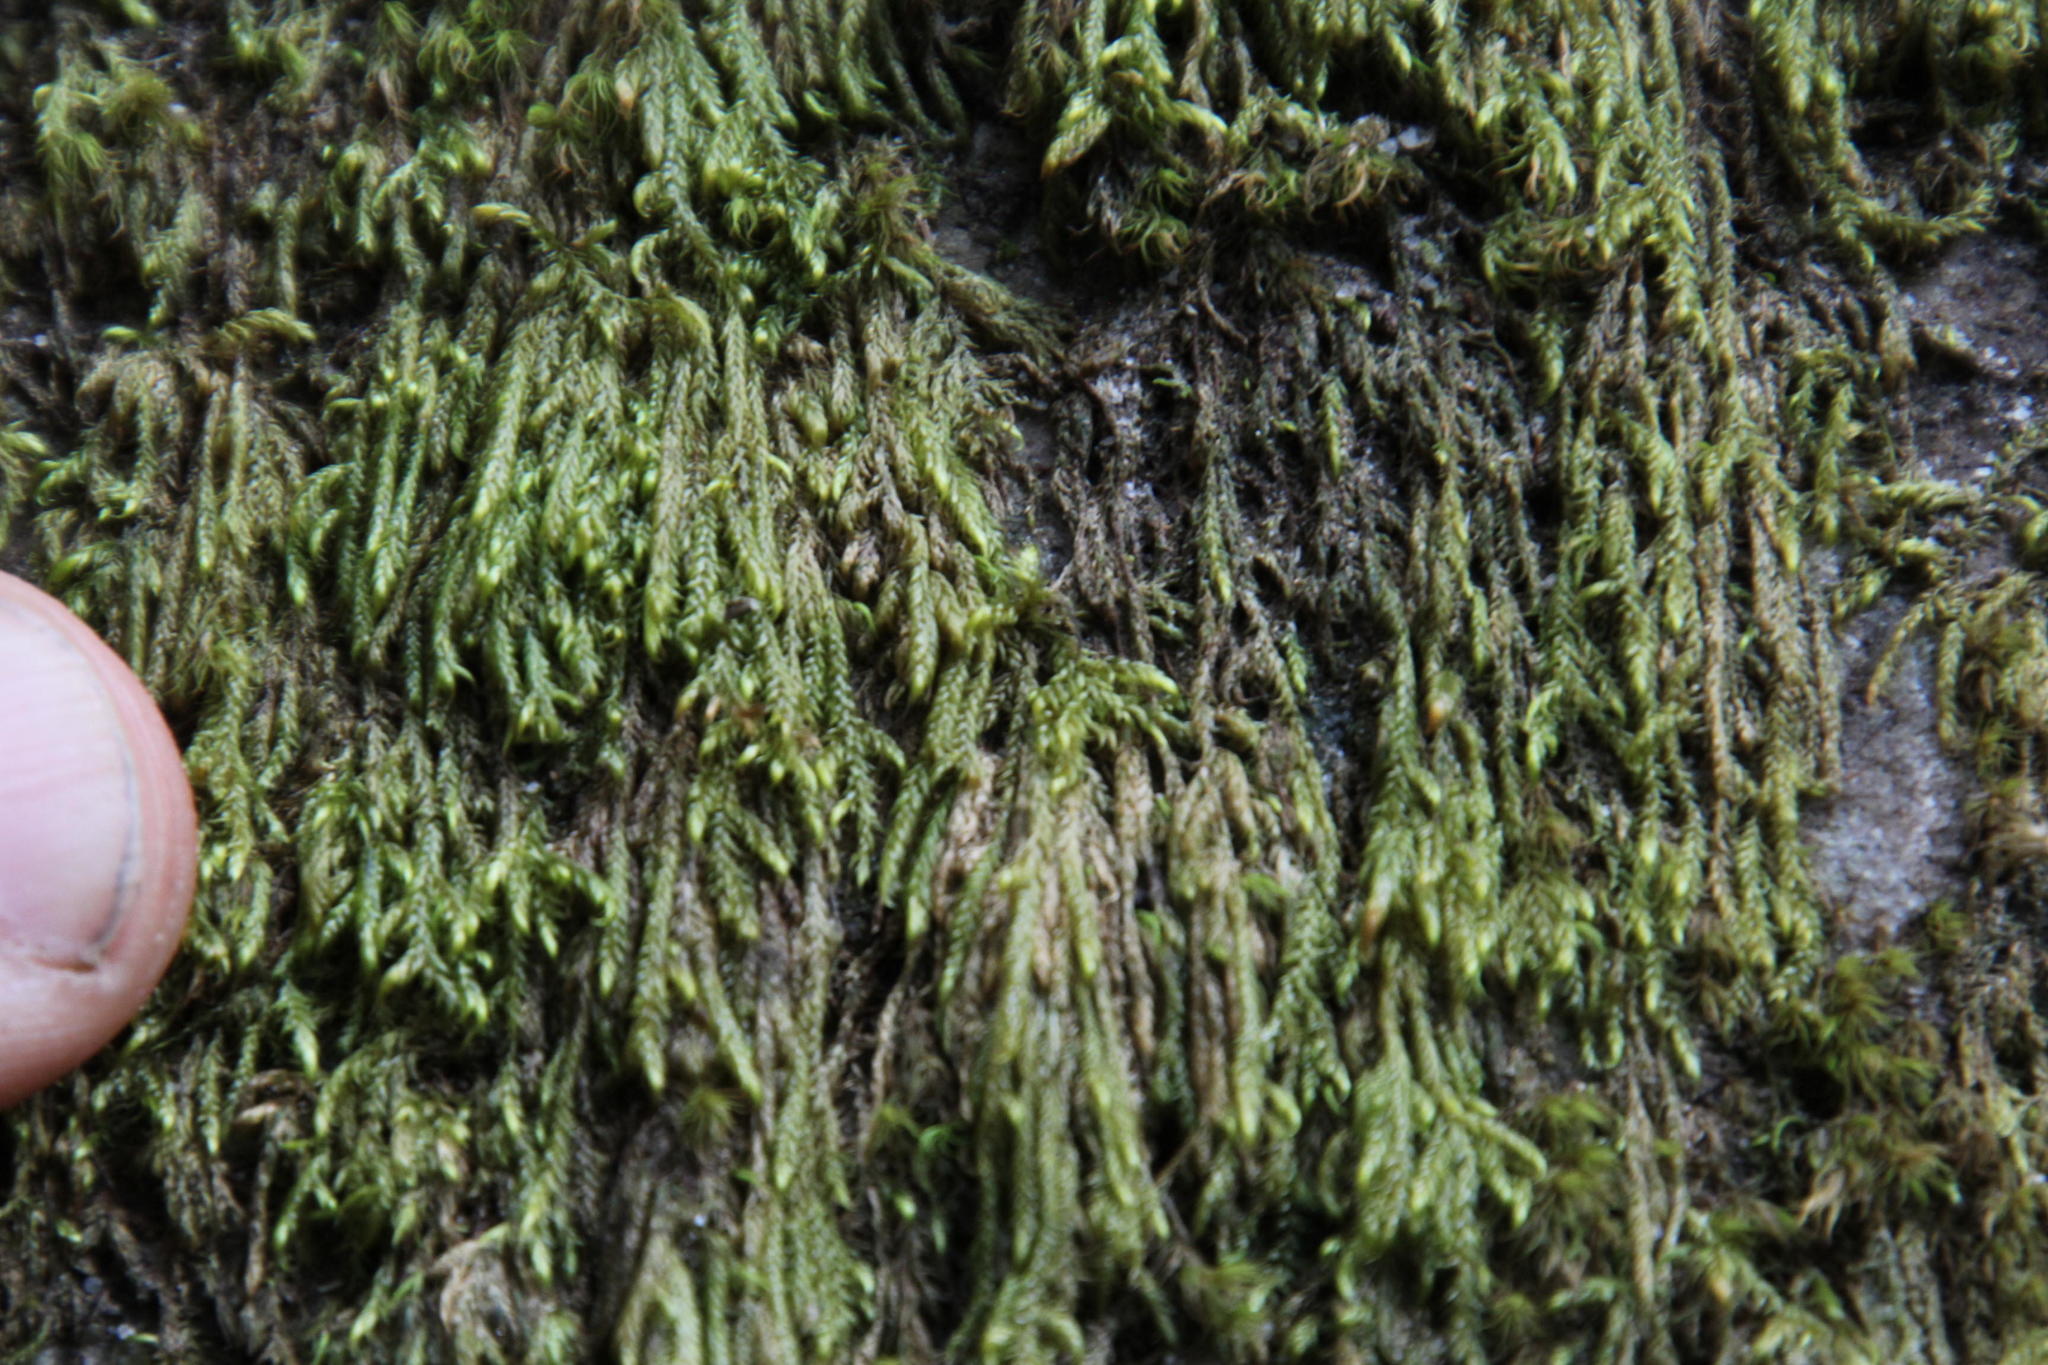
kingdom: Plantae
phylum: Bryophyta
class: Bryopsida
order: Hypnales
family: Amblystegiaceae
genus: Cratoneuropsis
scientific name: Cratoneuropsis chilensis
